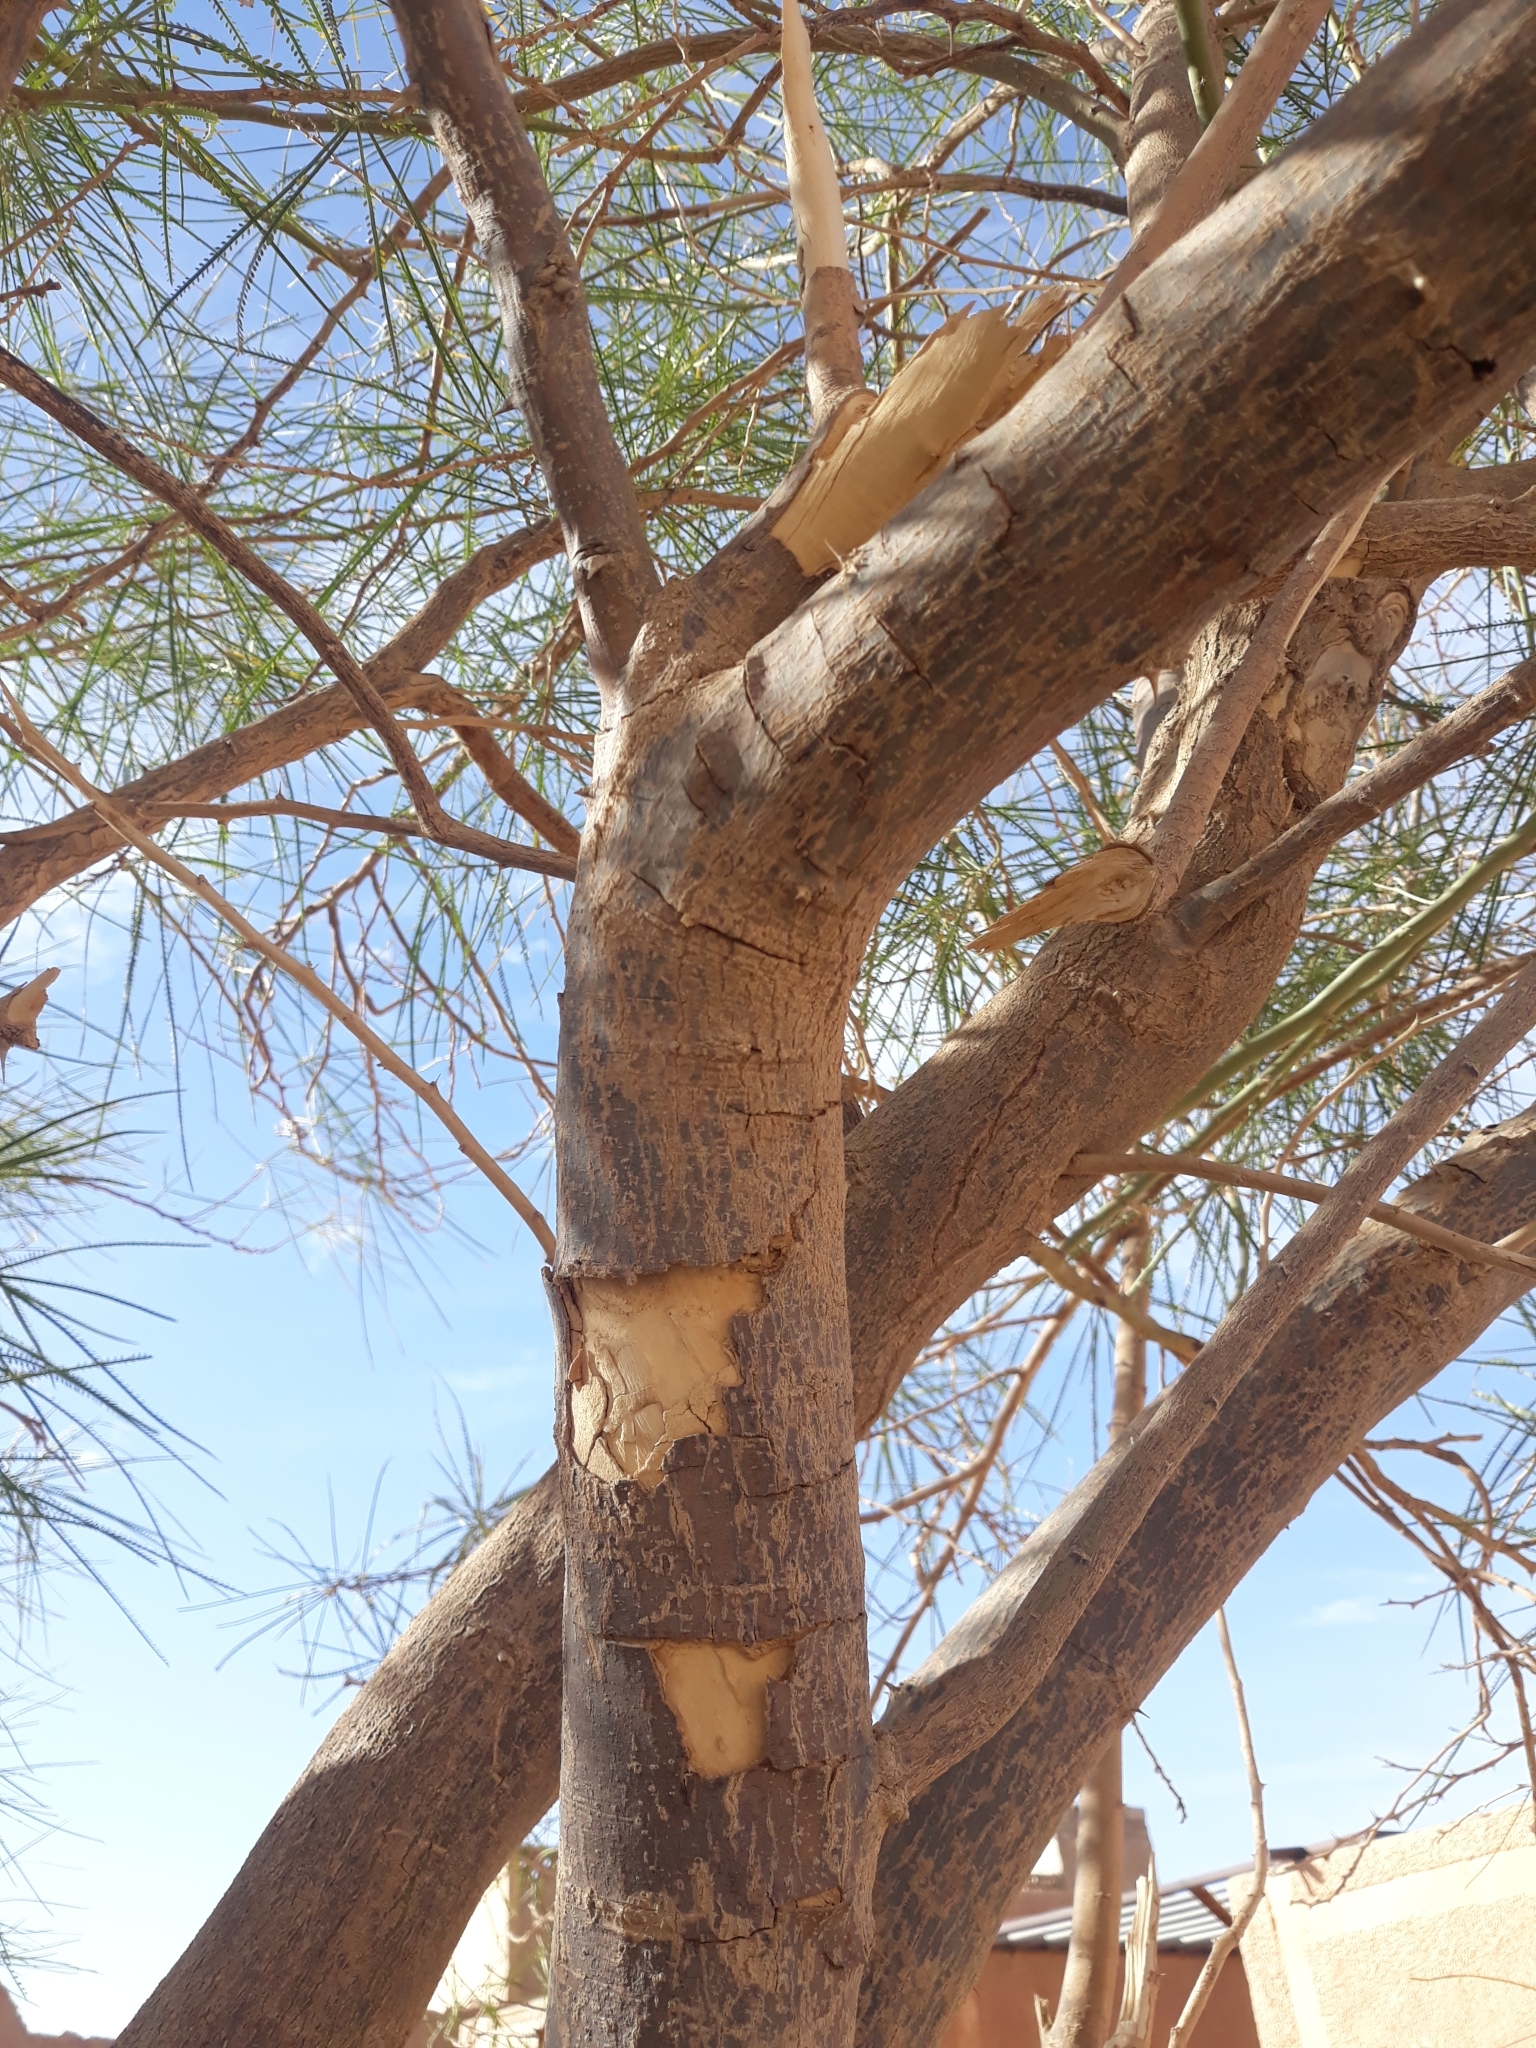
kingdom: Plantae
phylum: Tracheophyta
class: Magnoliopsida
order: Fabales
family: Fabaceae
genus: Parkinsonia
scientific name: Parkinsonia aculeata
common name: Jerusalem thorn
